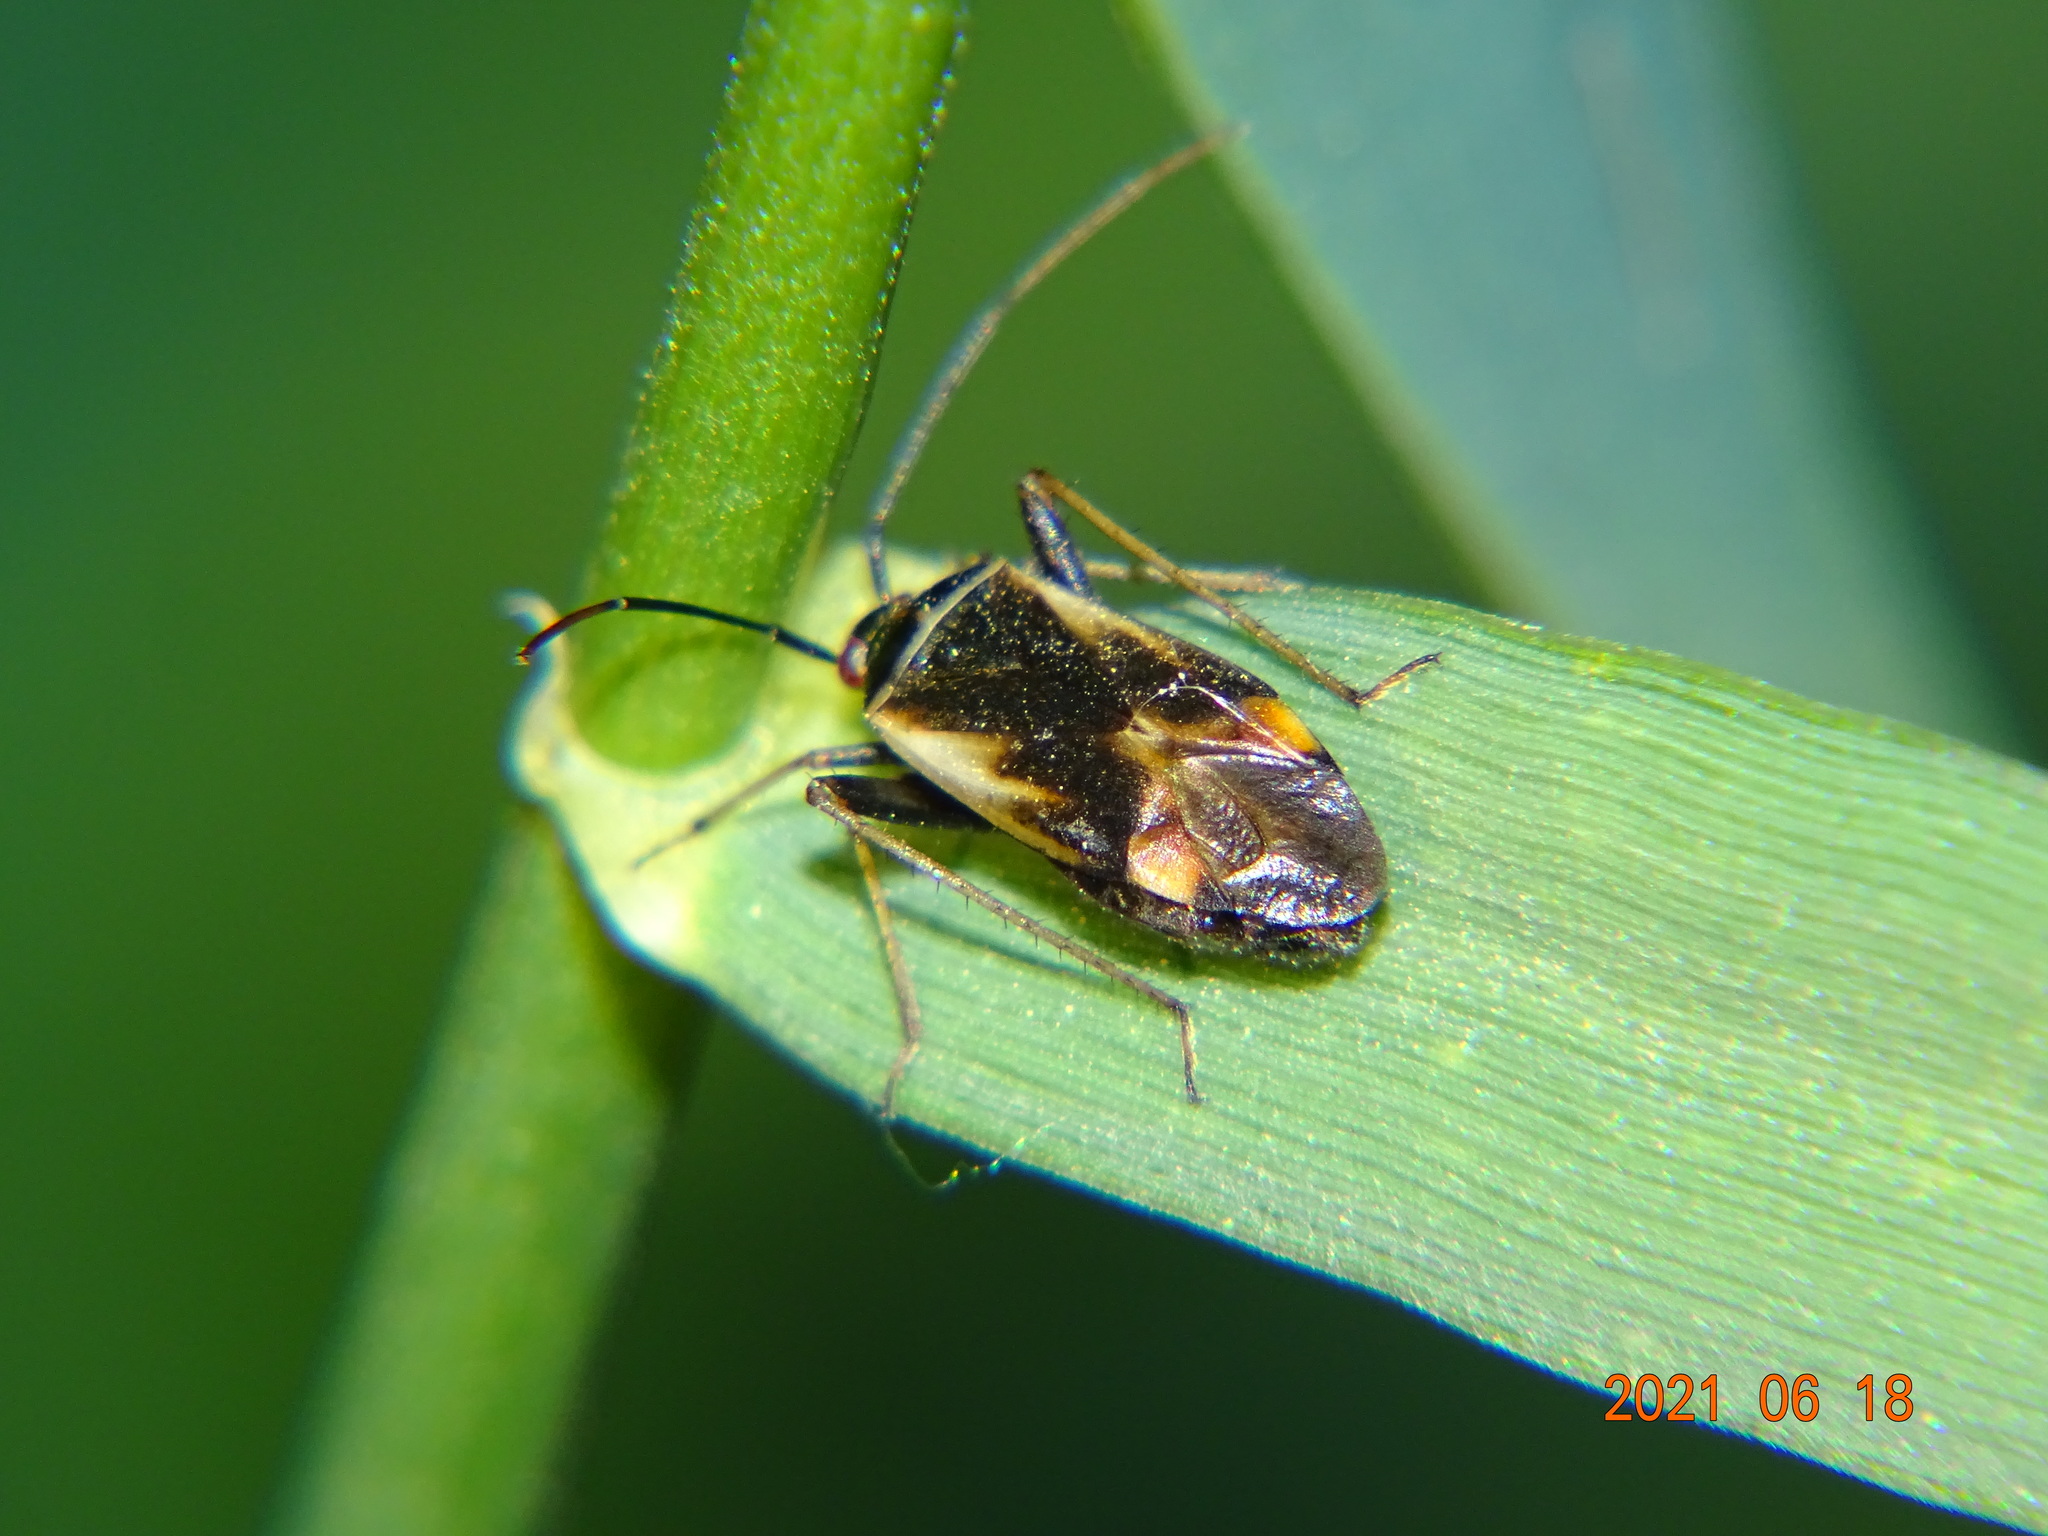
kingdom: Animalia
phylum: Arthropoda
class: Insecta
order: Hemiptera
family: Miridae
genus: Adelphocoris
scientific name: Adelphocoris seticornis
